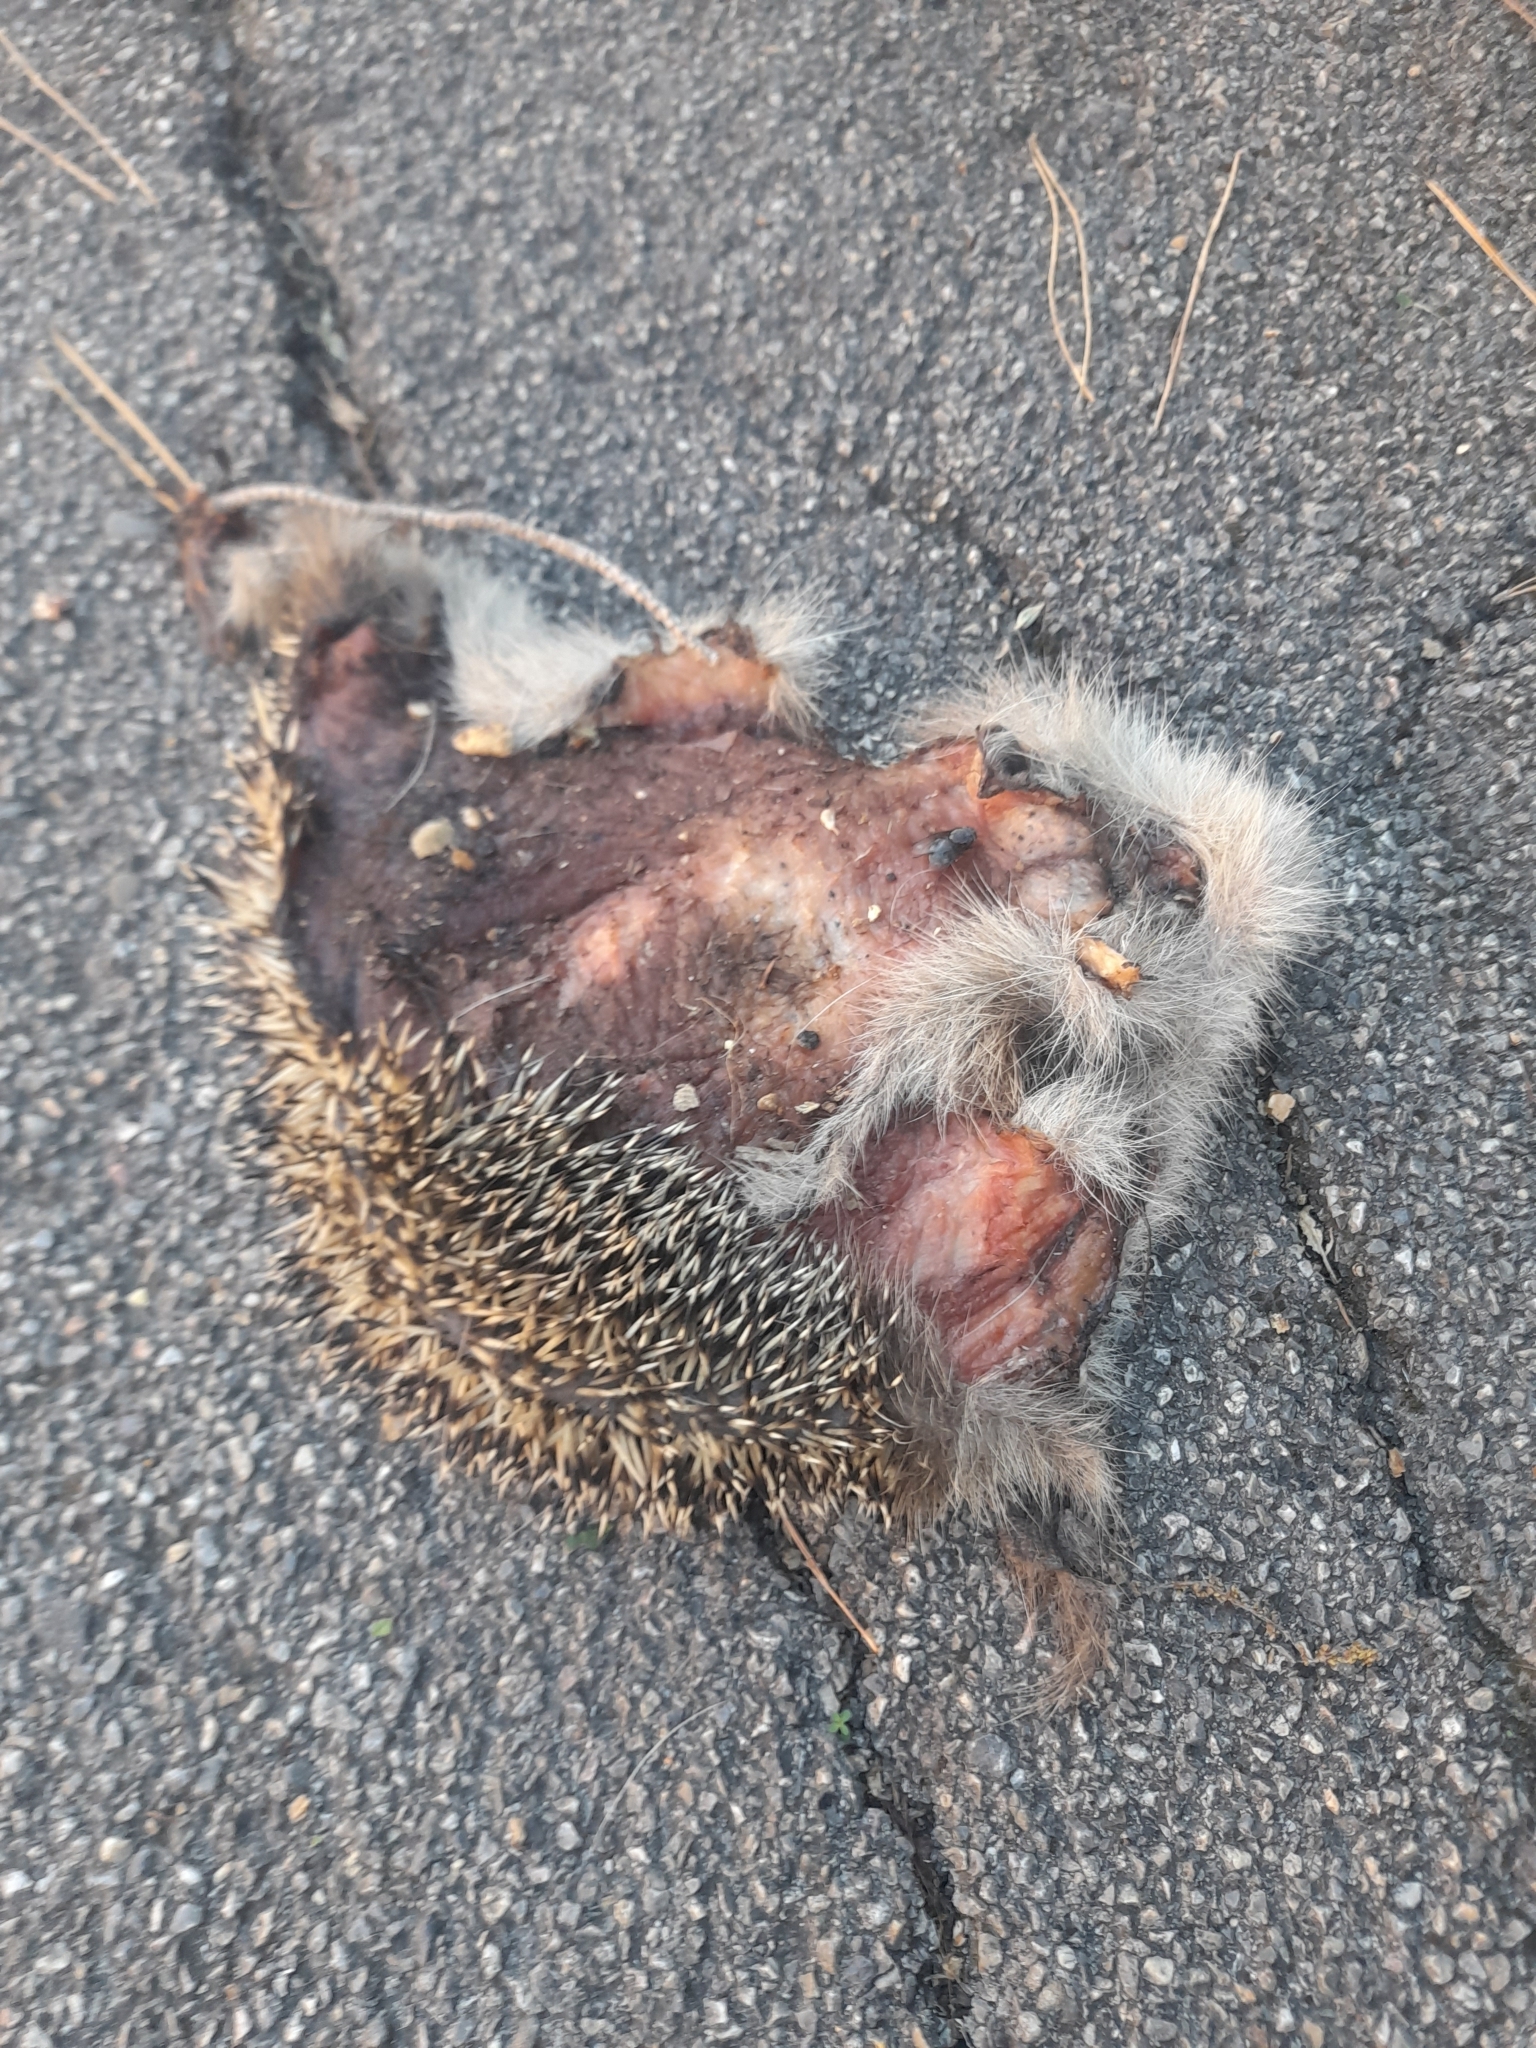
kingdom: Animalia
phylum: Chordata
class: Mammalia
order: Erinaceomorpha
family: Erinaceidae
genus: Erinaceus
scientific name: Erinaceus europaeus
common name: West european hedgehog
